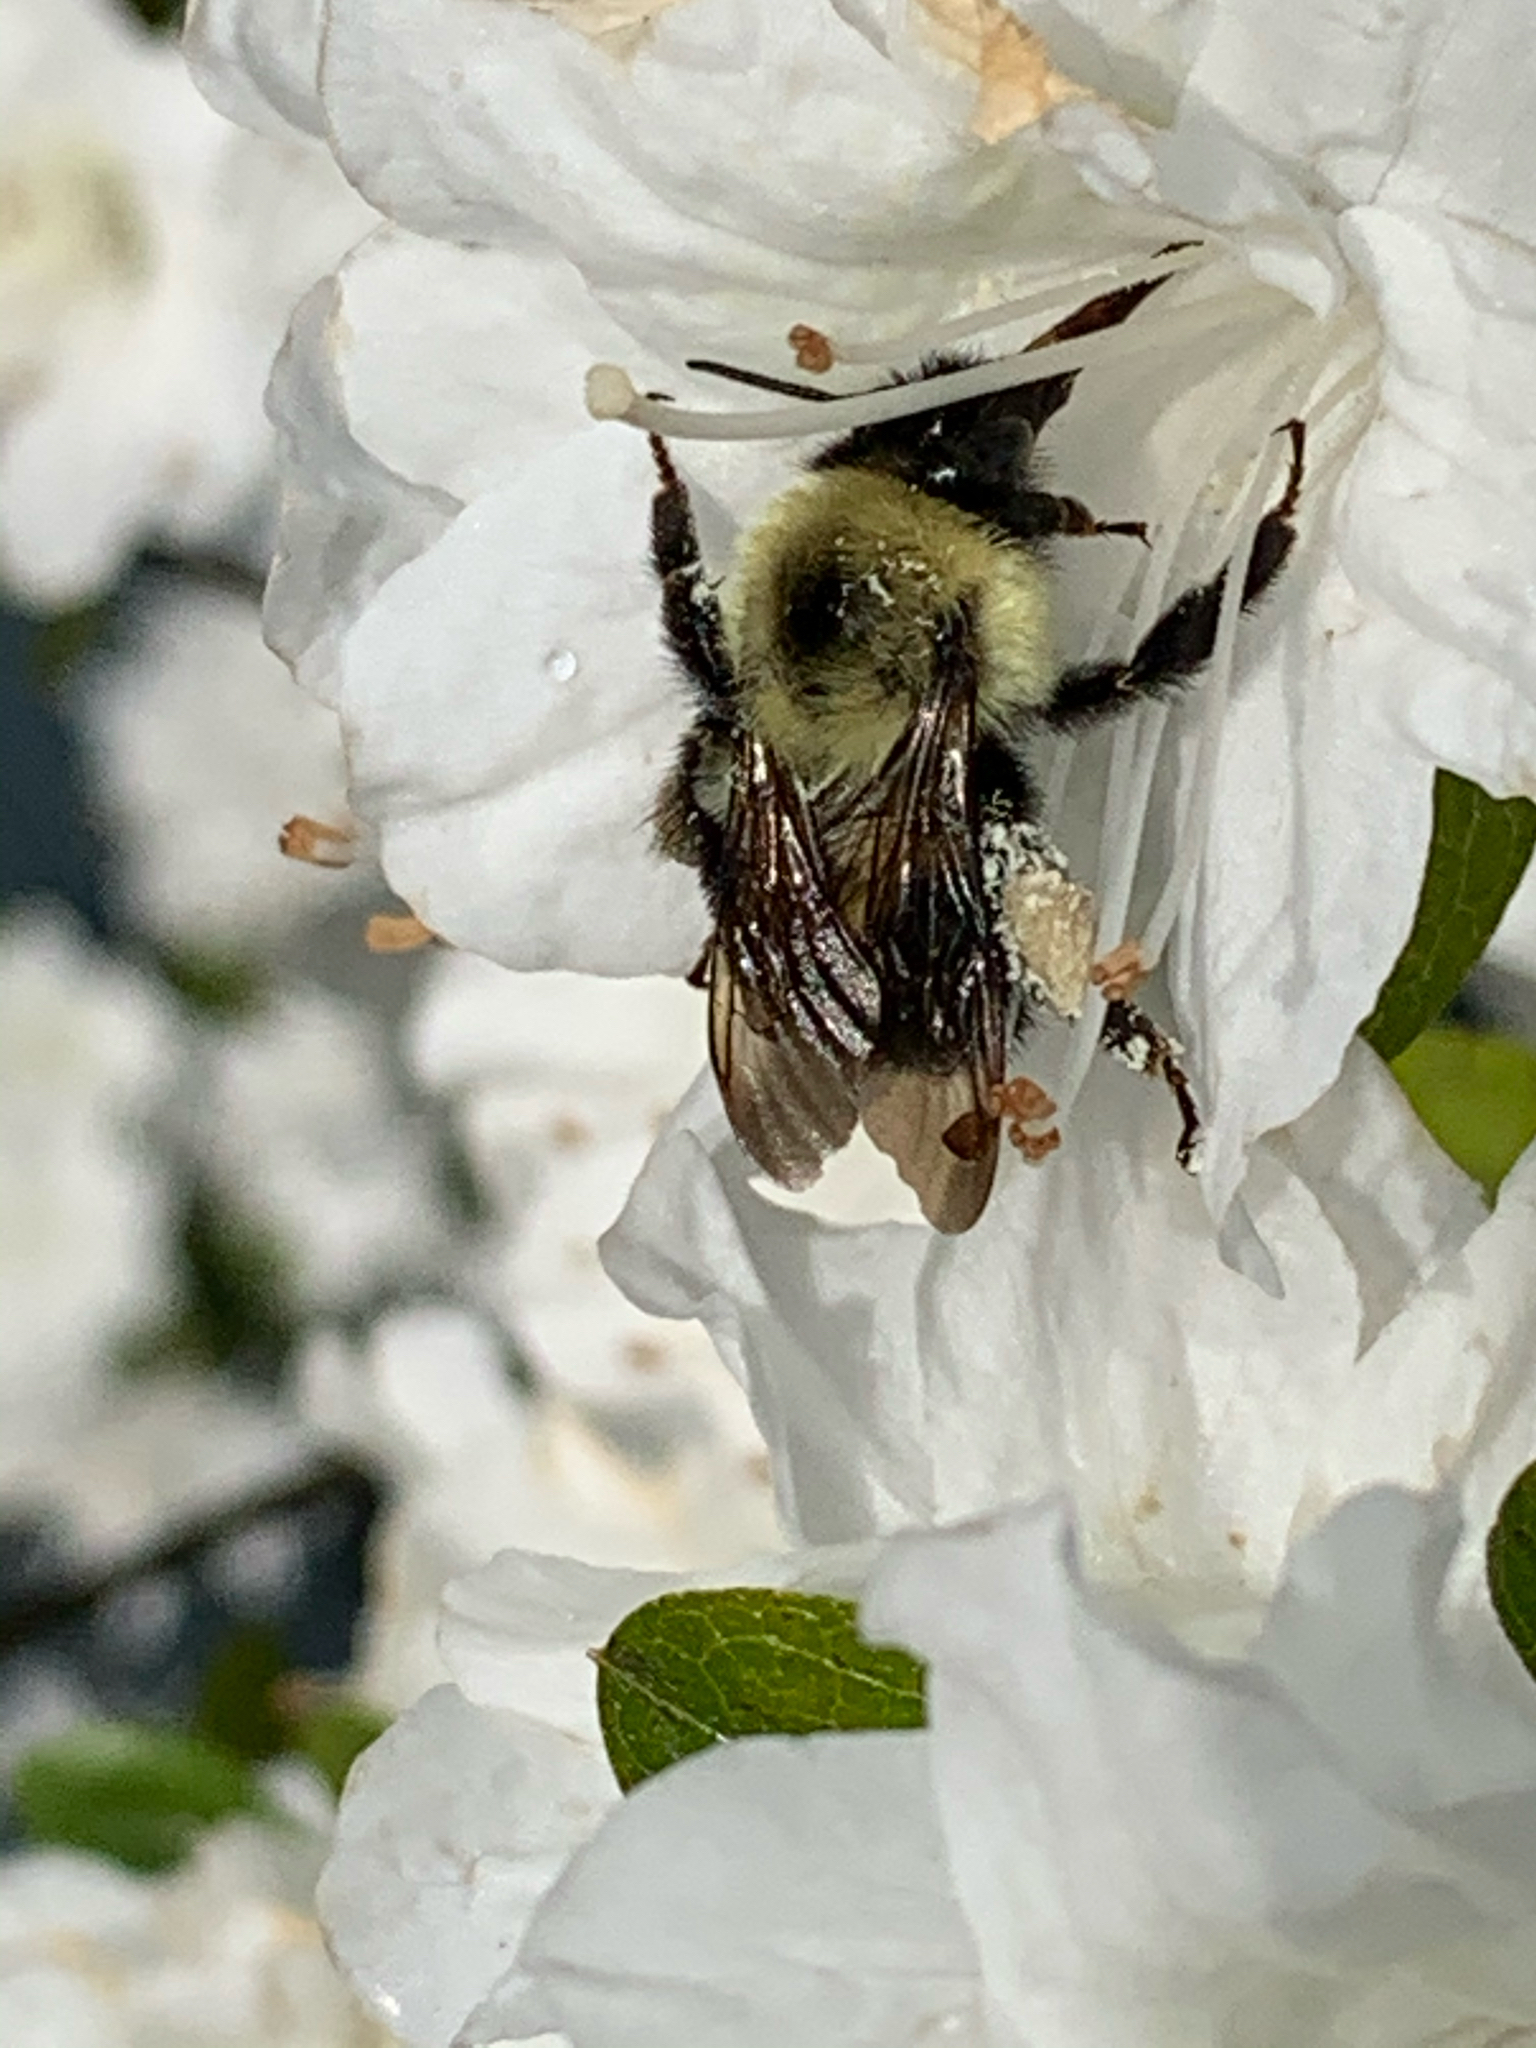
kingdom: Animalia
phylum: Arthropoda
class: Insecta
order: Hymenoptera
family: Apidae
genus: Bombus
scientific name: Bombus bimaculatus
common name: Two-spotted bumble bee
